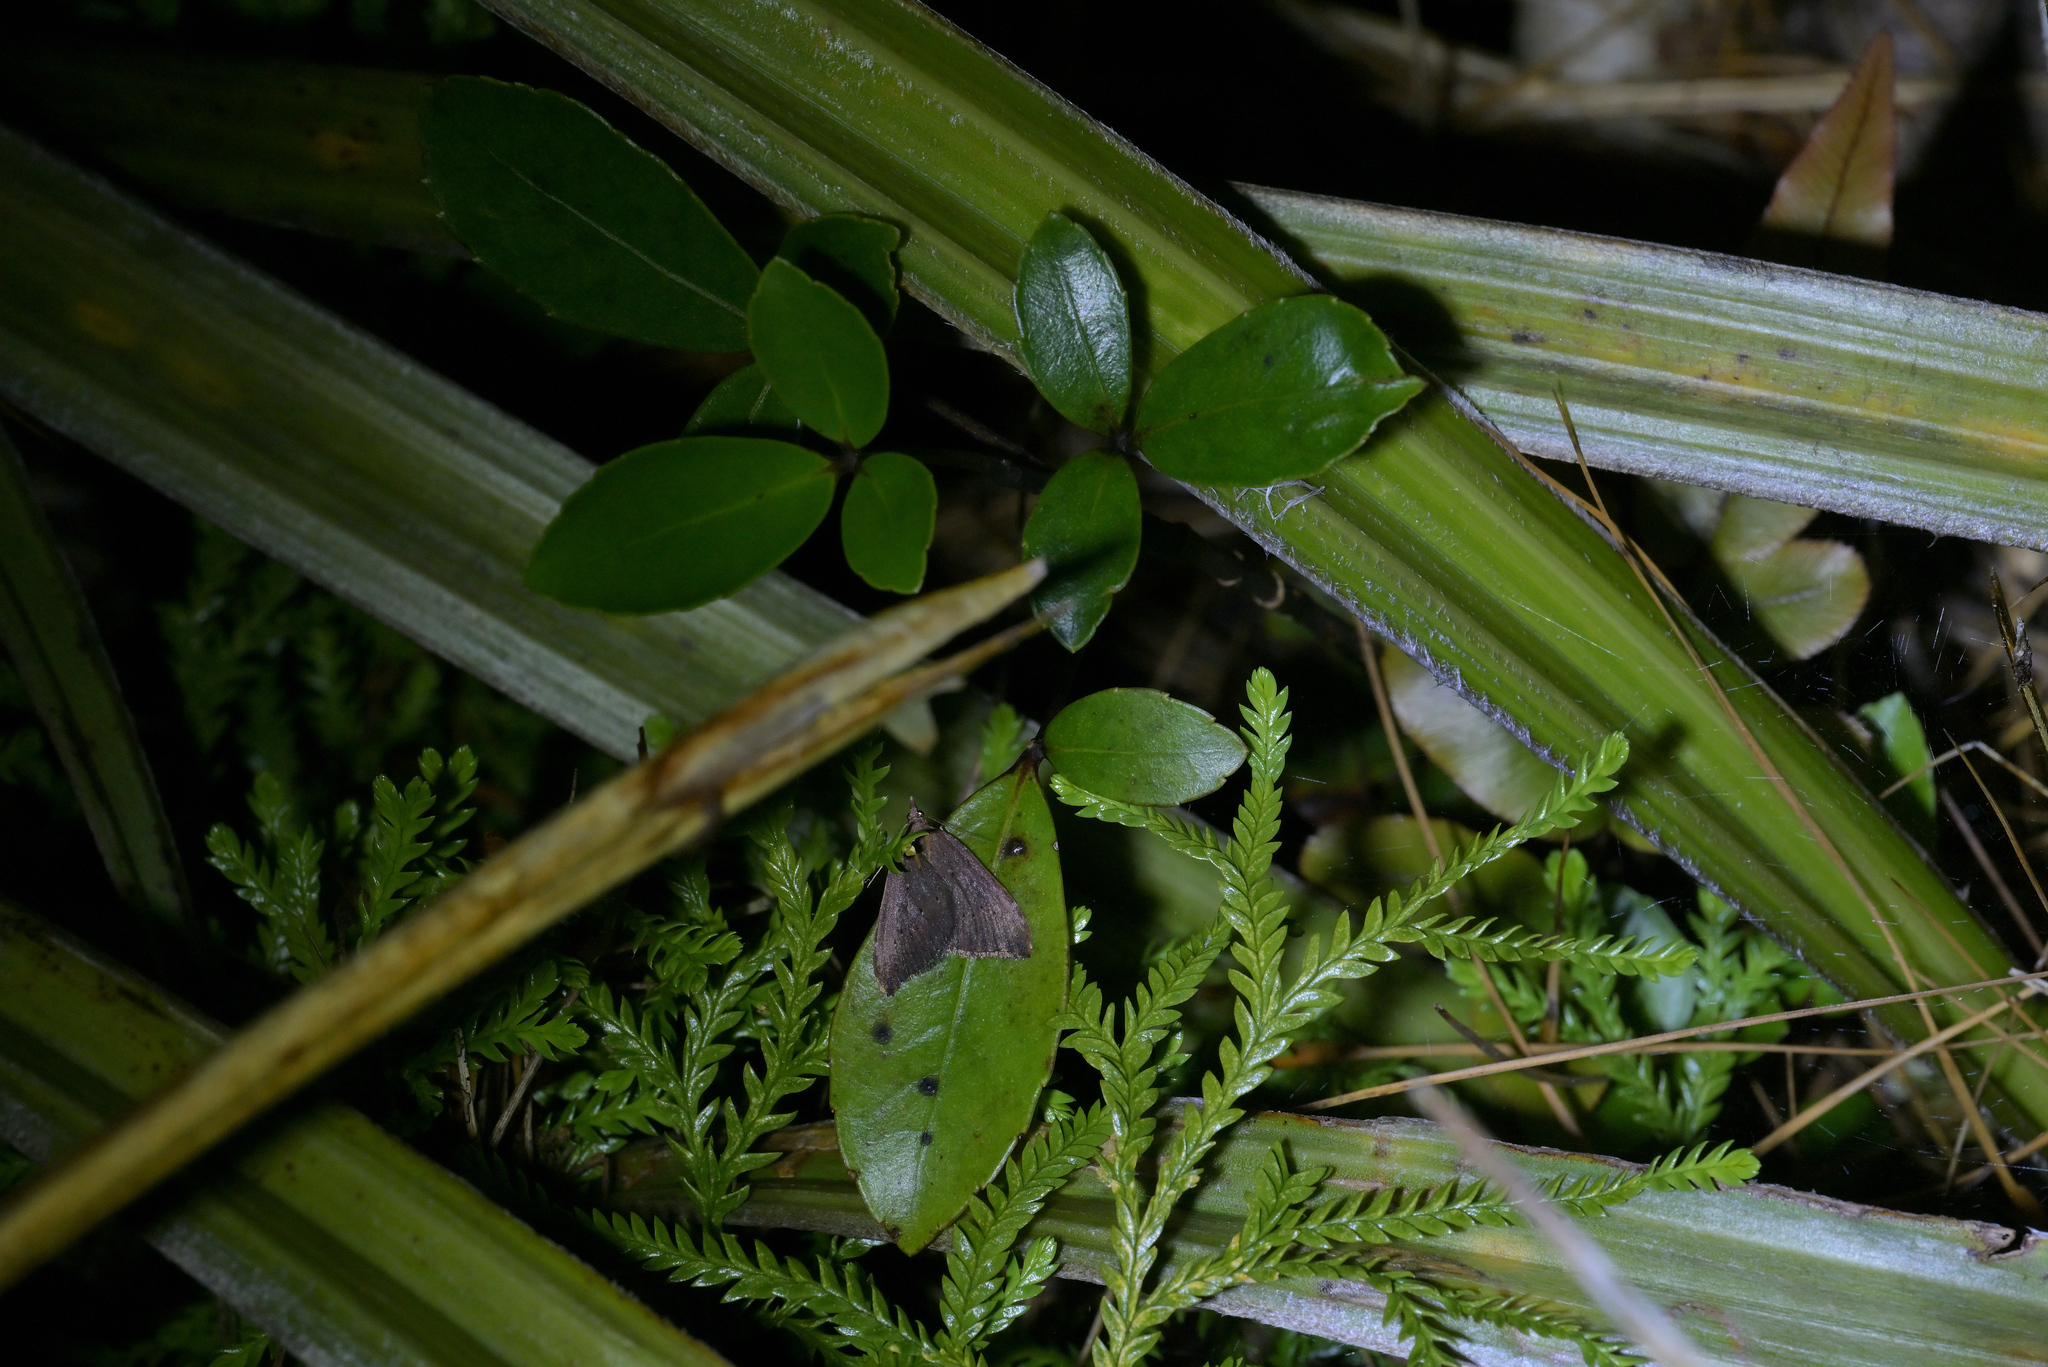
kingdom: Animalia
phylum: Arthropoda
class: Insecta
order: Lepidoptera
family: Geometridae
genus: Xanthorhoe
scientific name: Xanthorhoe occulta
